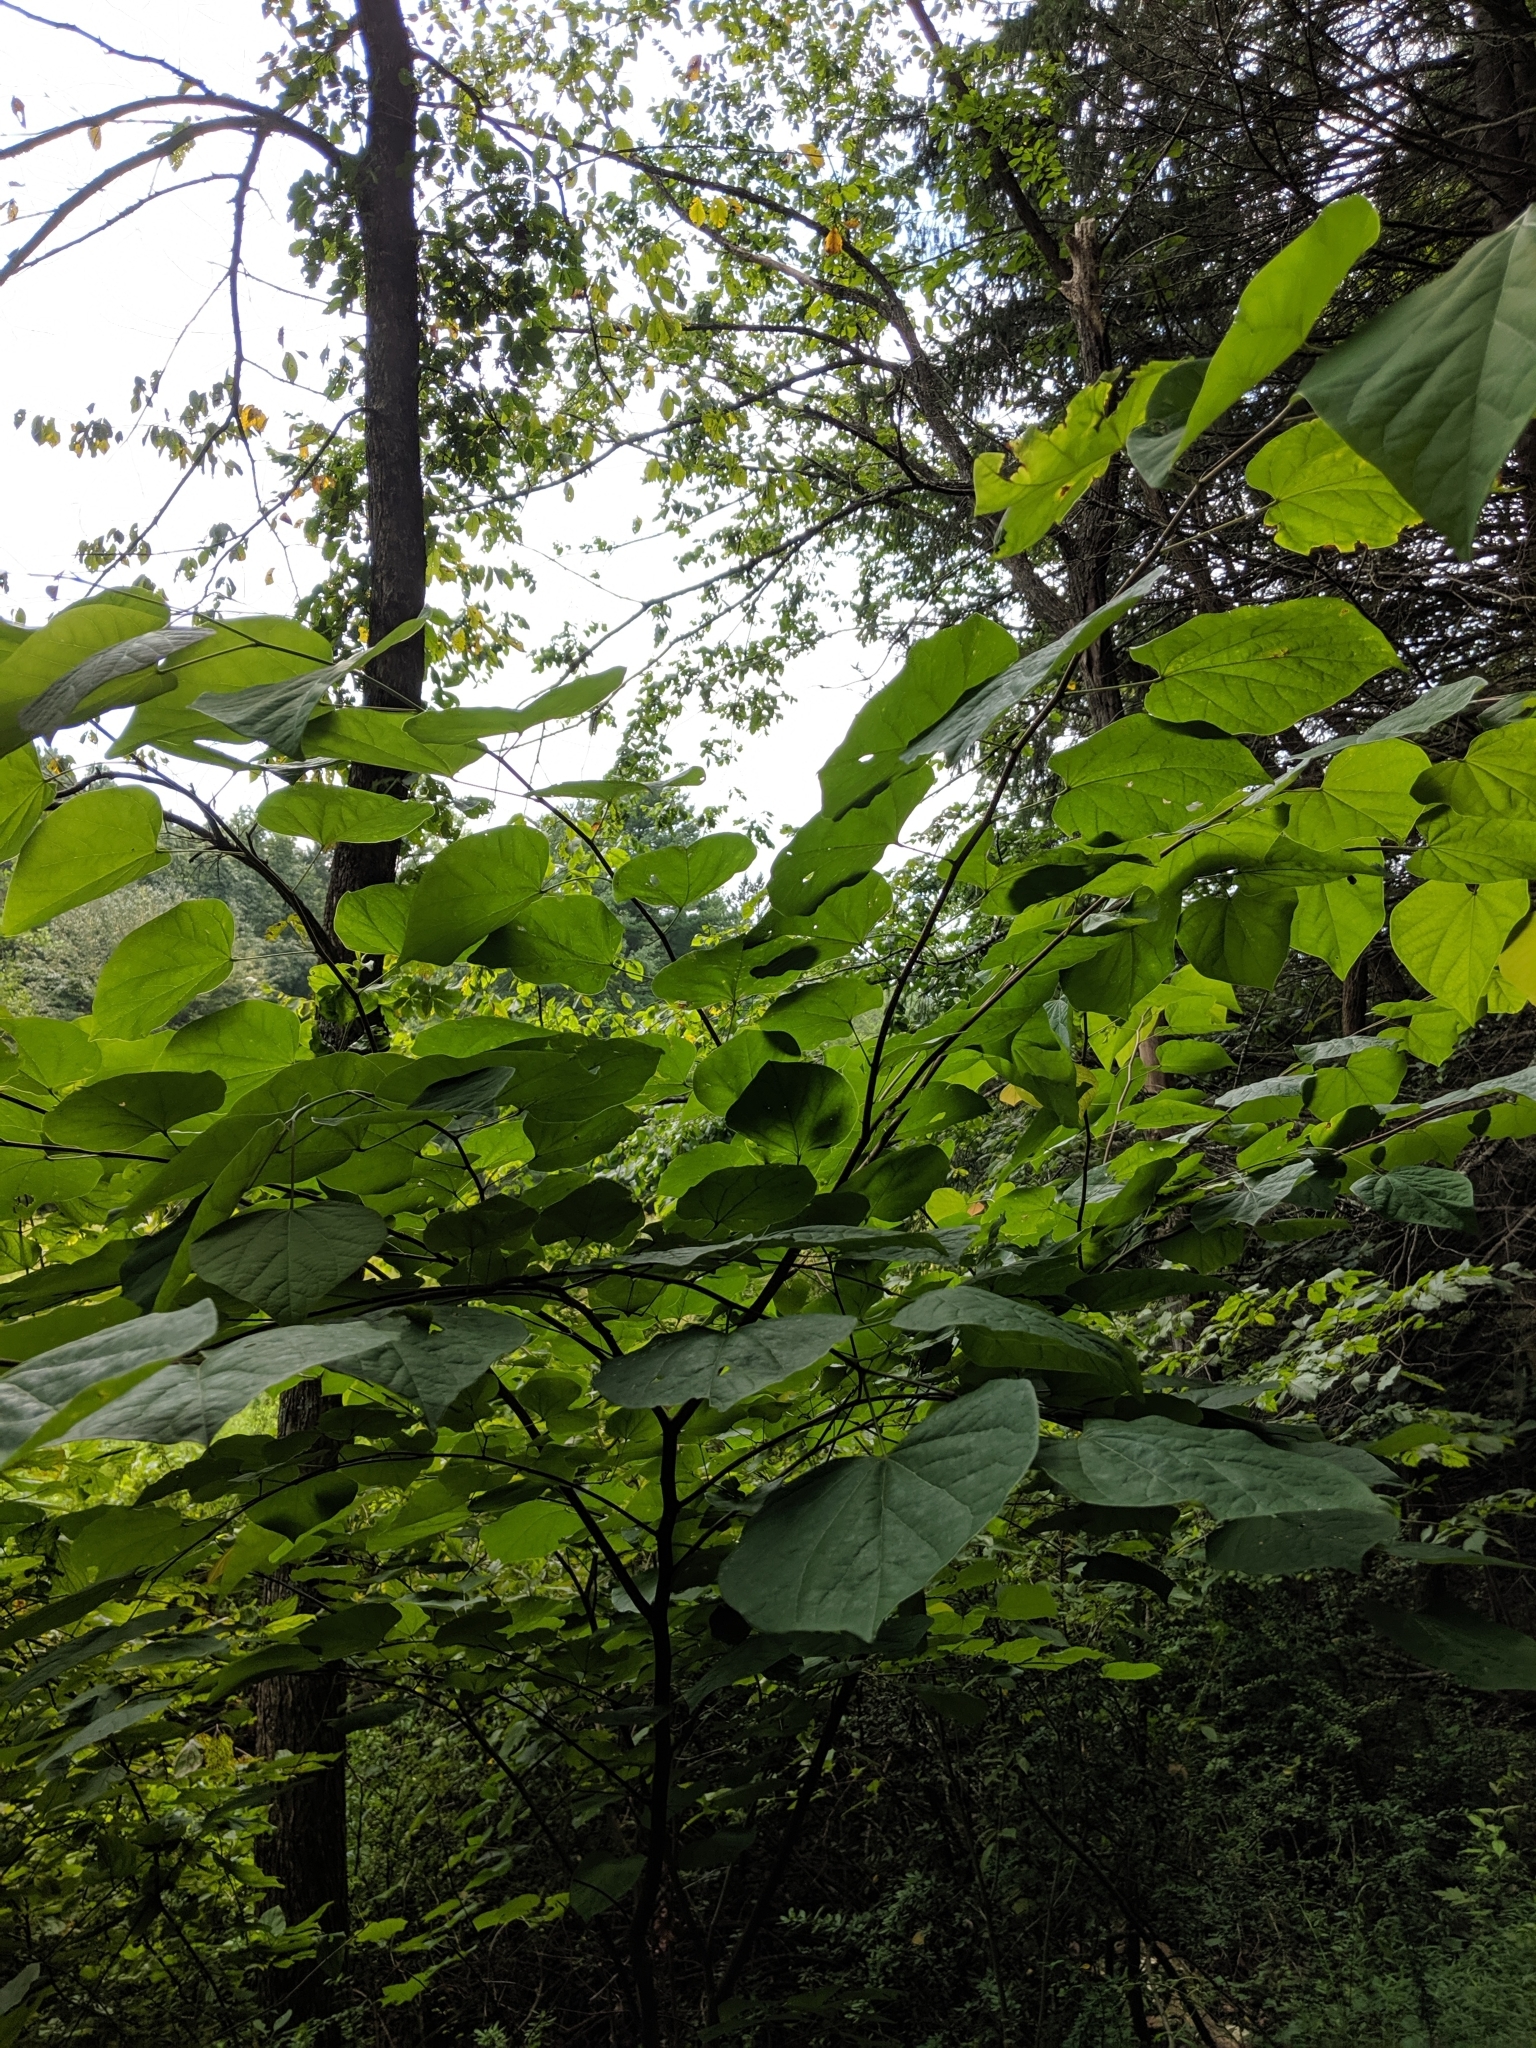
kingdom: Plantae
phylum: Tracheophyta
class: Magnoliopsida
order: Fabales
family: Fabaceae
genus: Cercis
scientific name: Cercis canadensis
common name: Eastern redbud
